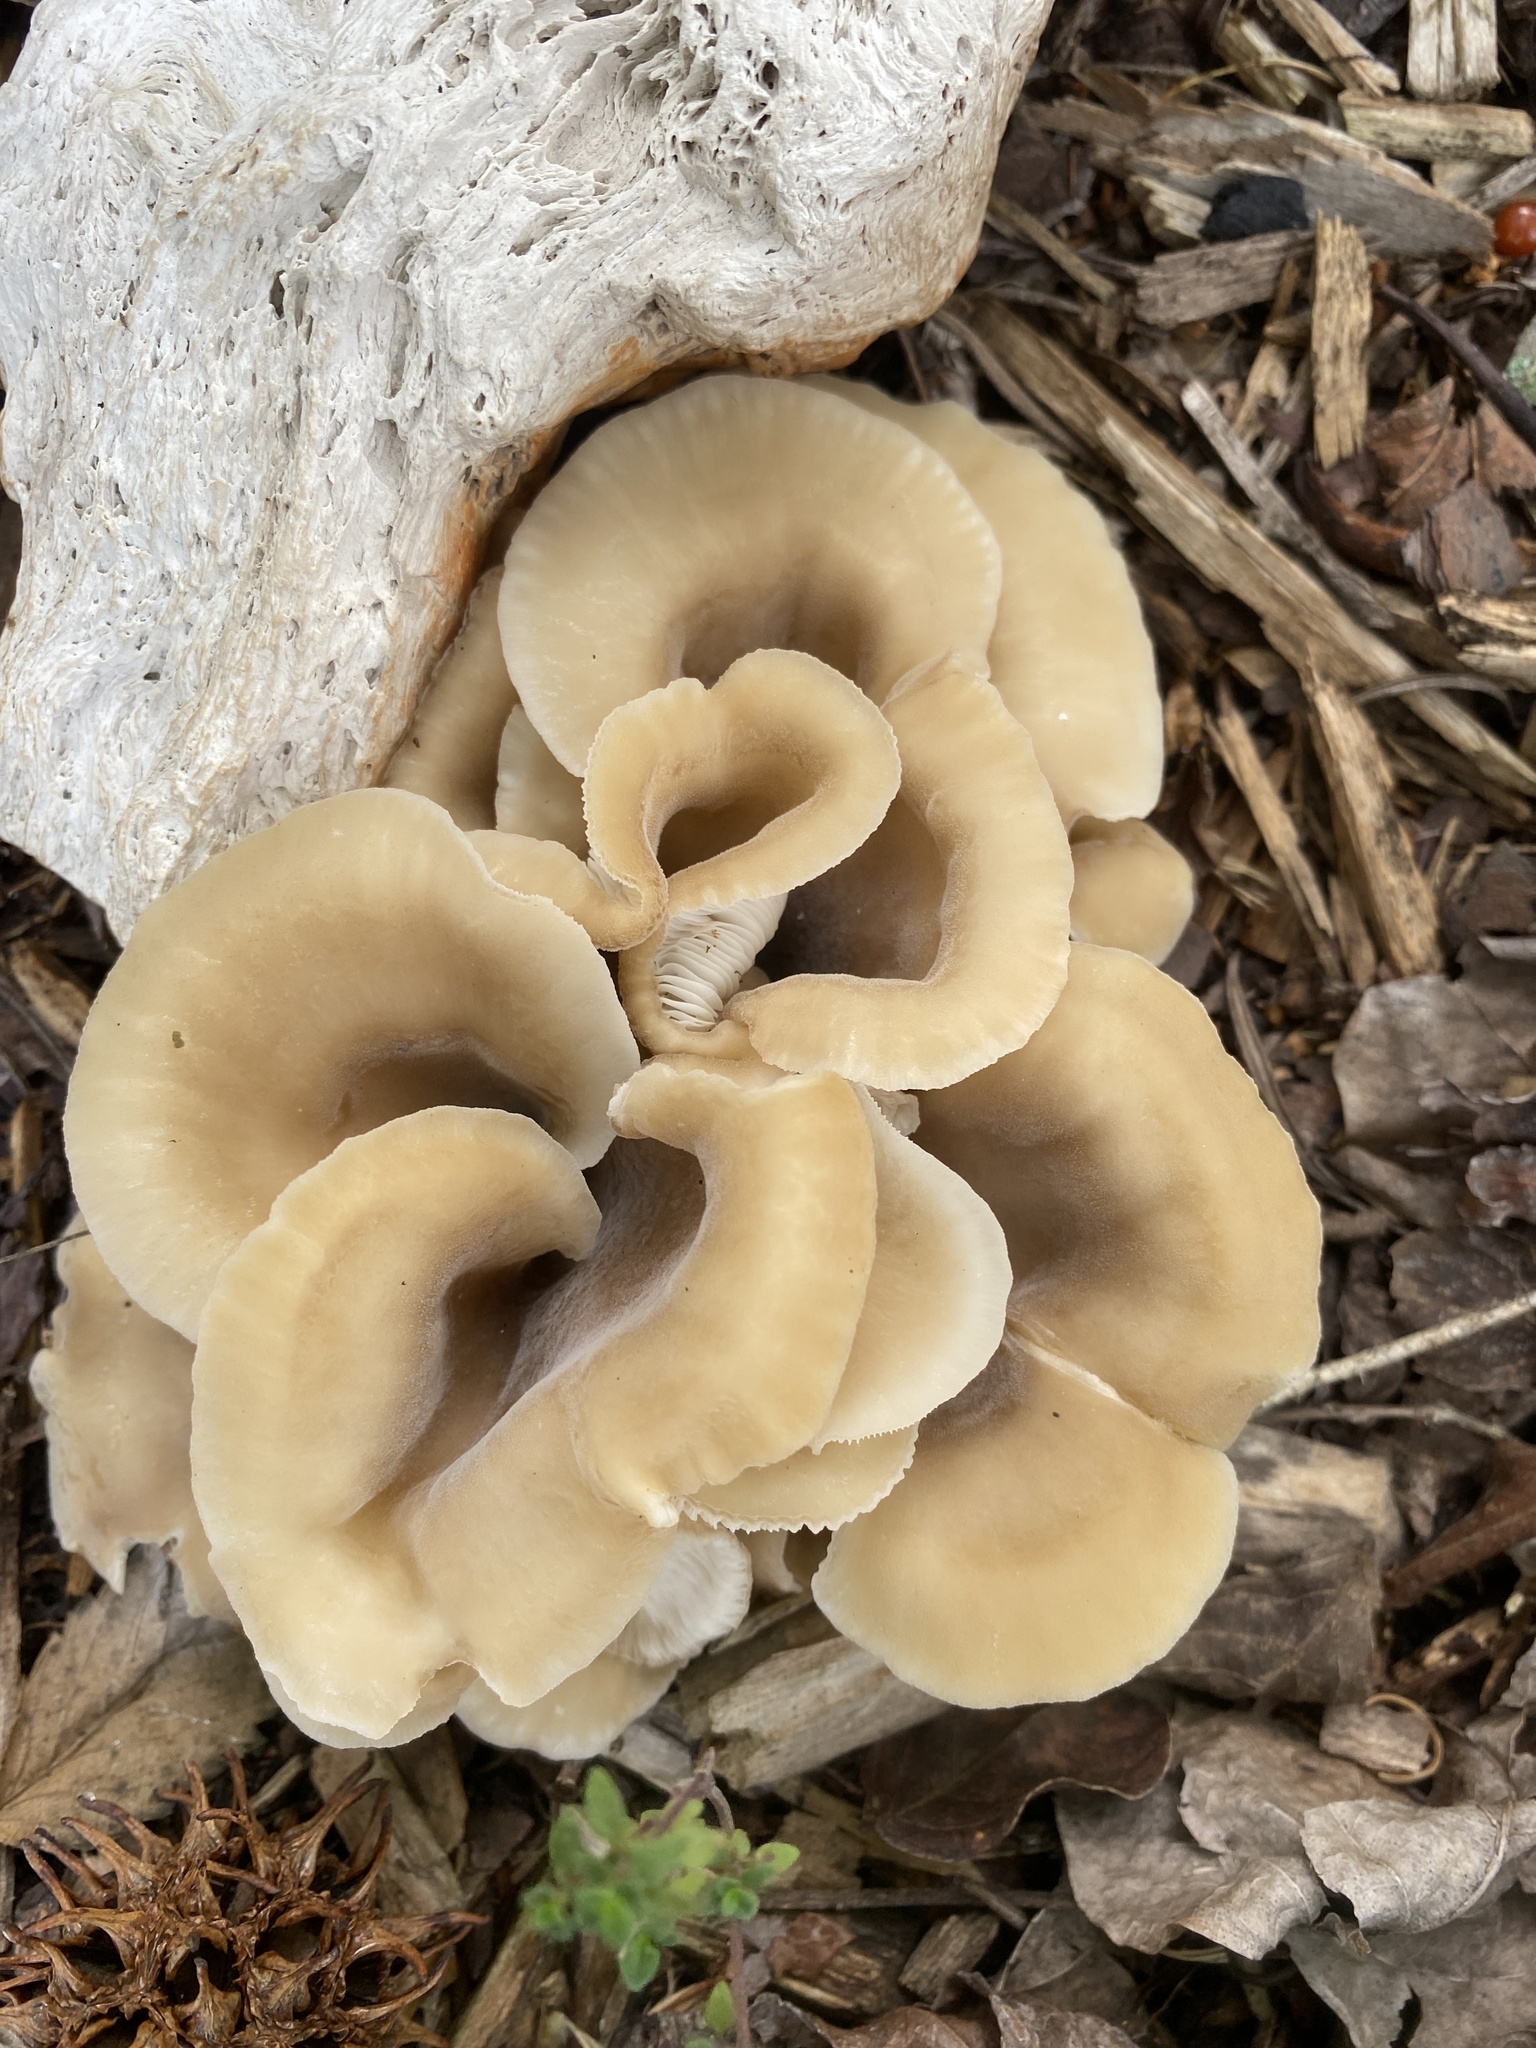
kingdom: Fungi
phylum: Basidiomycota
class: Agaricomycetes
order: Agaricales
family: Pleurotaceae
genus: Hohenbuehelia
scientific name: Hohenbuehelia petaloides
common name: Shoehorn oyster
